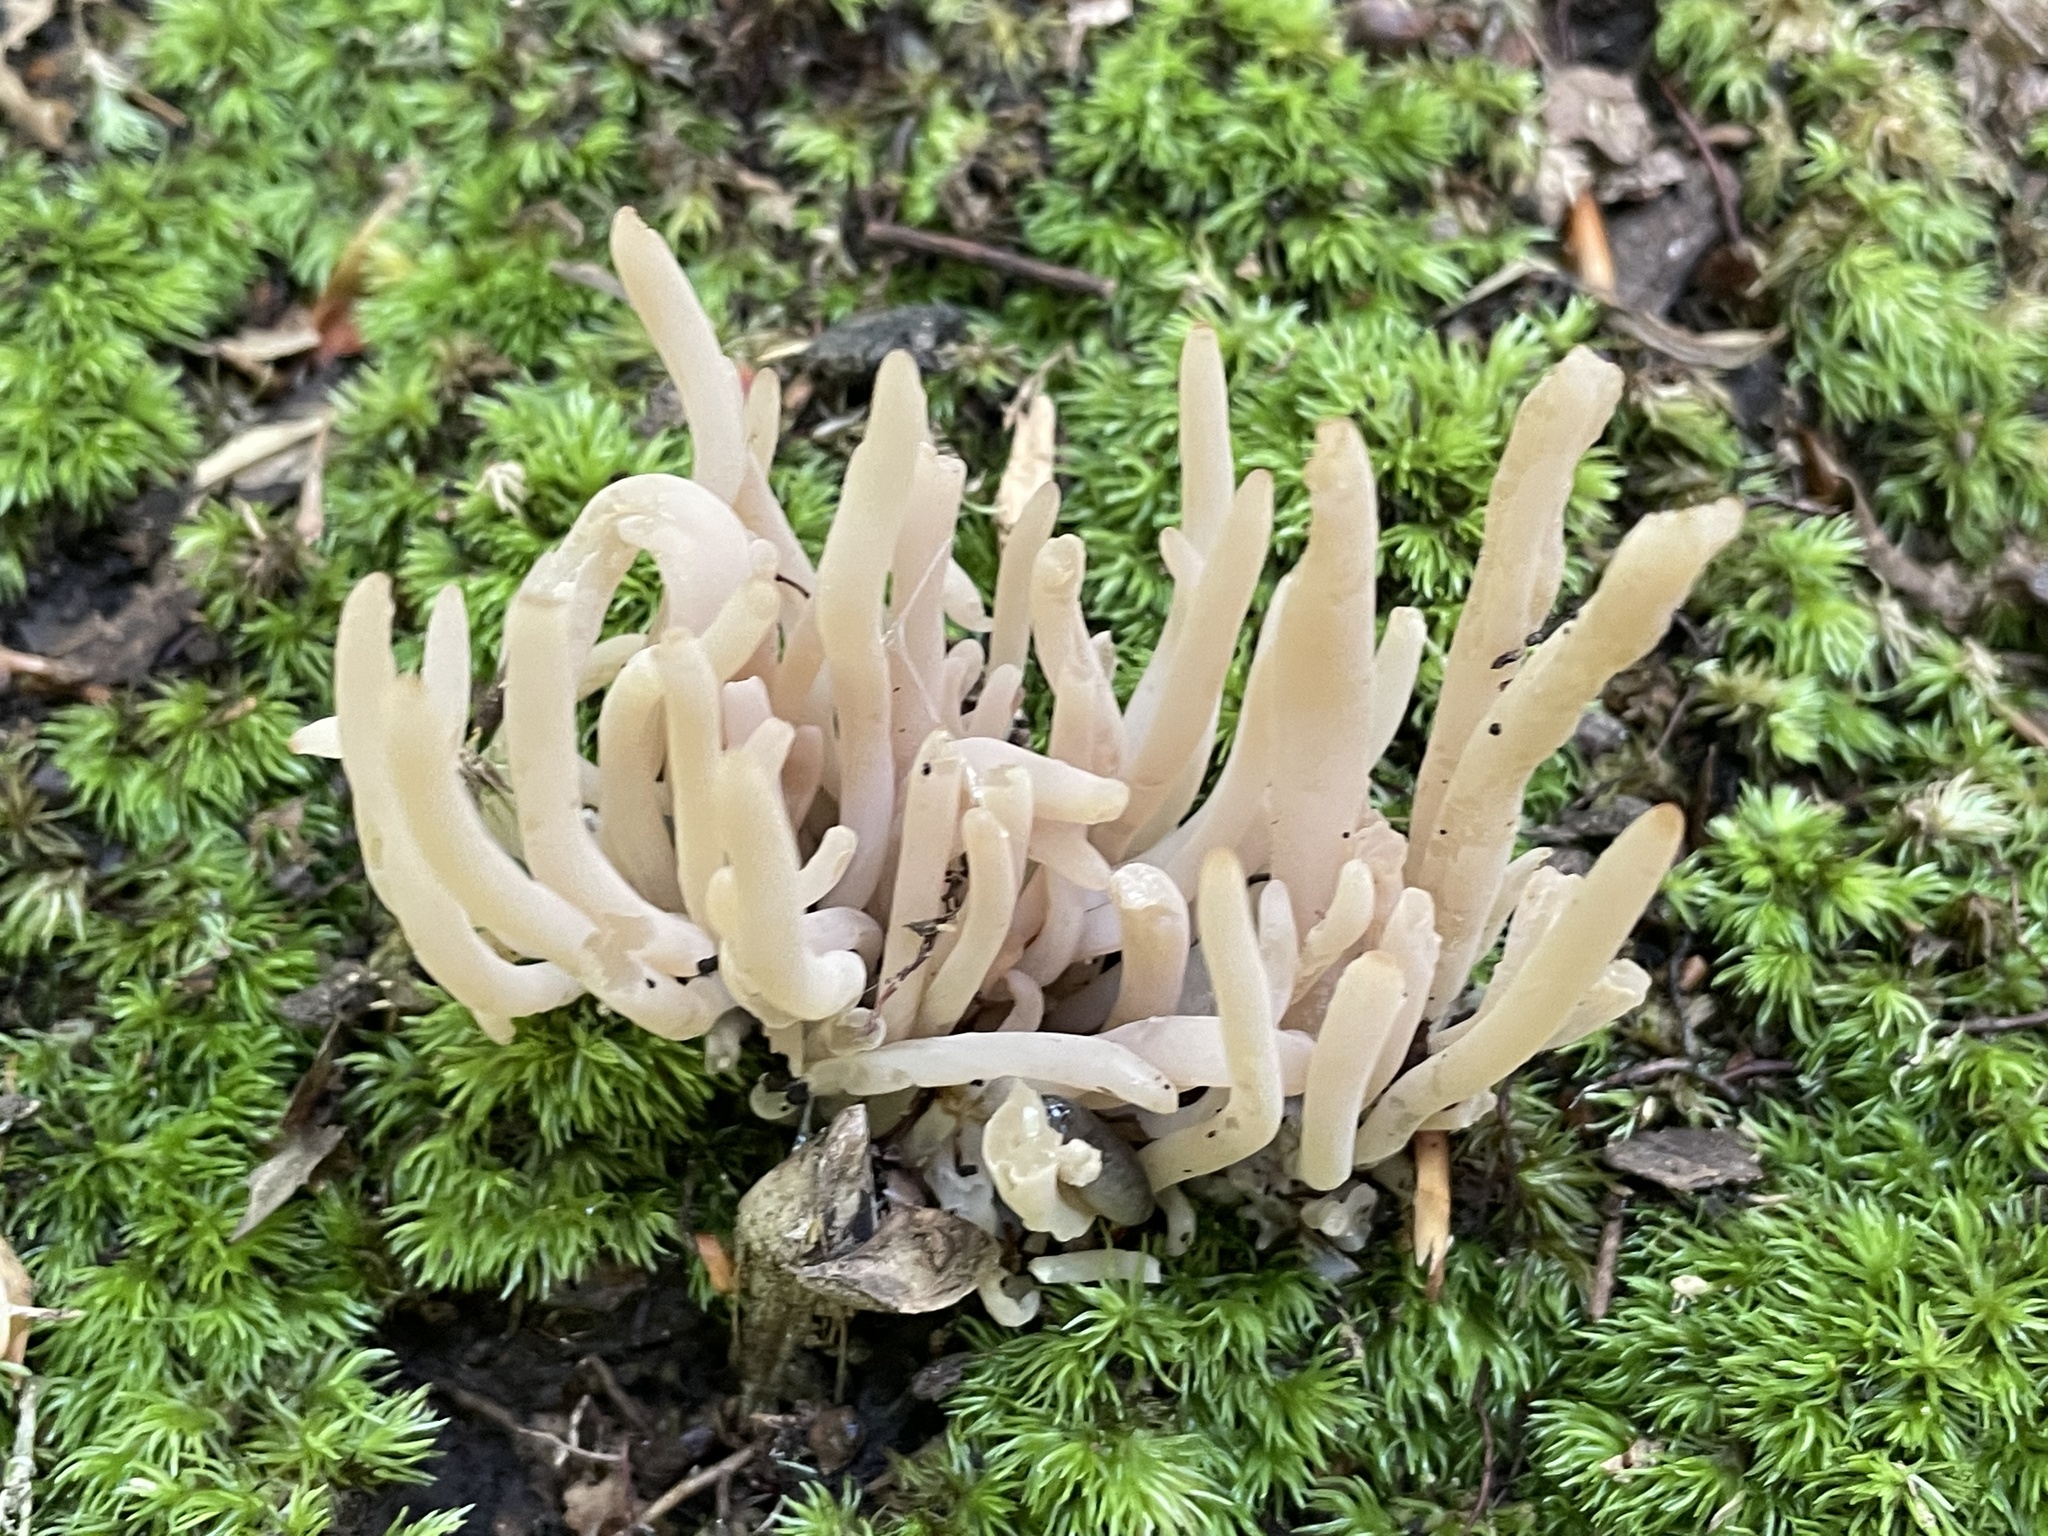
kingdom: Fungi
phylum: Basidiomycota
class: Agaricomycetes
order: Agaricales
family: Clavariaceae
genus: Clavaria
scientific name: Clavaria fumosa
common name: Smoky spindles
